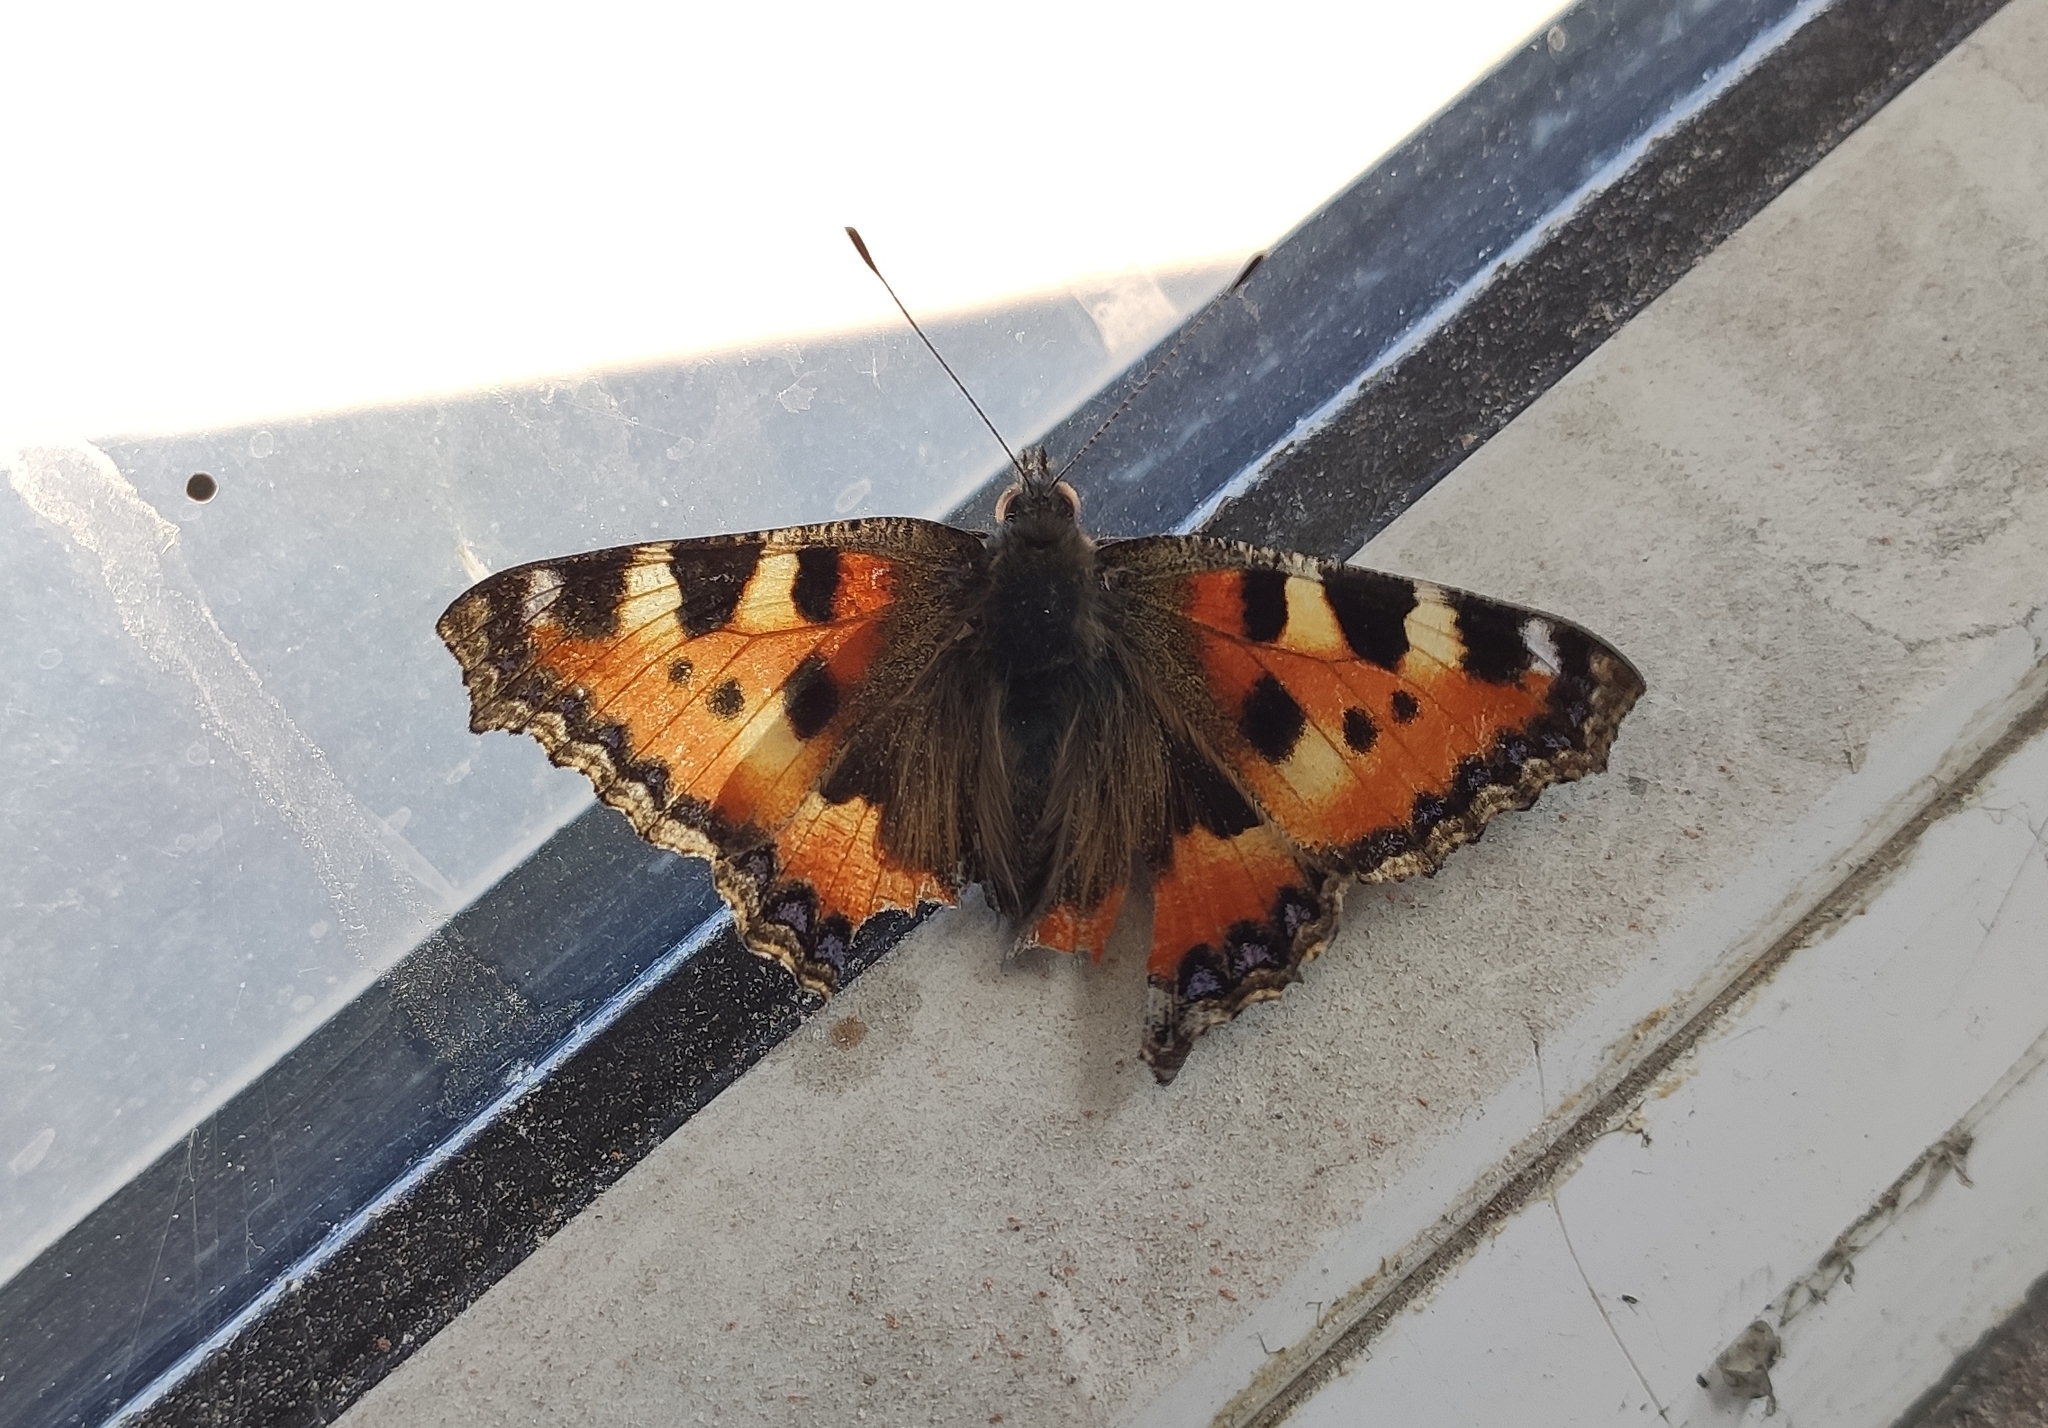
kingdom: Animalia
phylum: Arthropoda
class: Insecta
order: Lepidoptera
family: Nymphalidae
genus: Aglais
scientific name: Aglais urticae
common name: Small tortoiseshell
